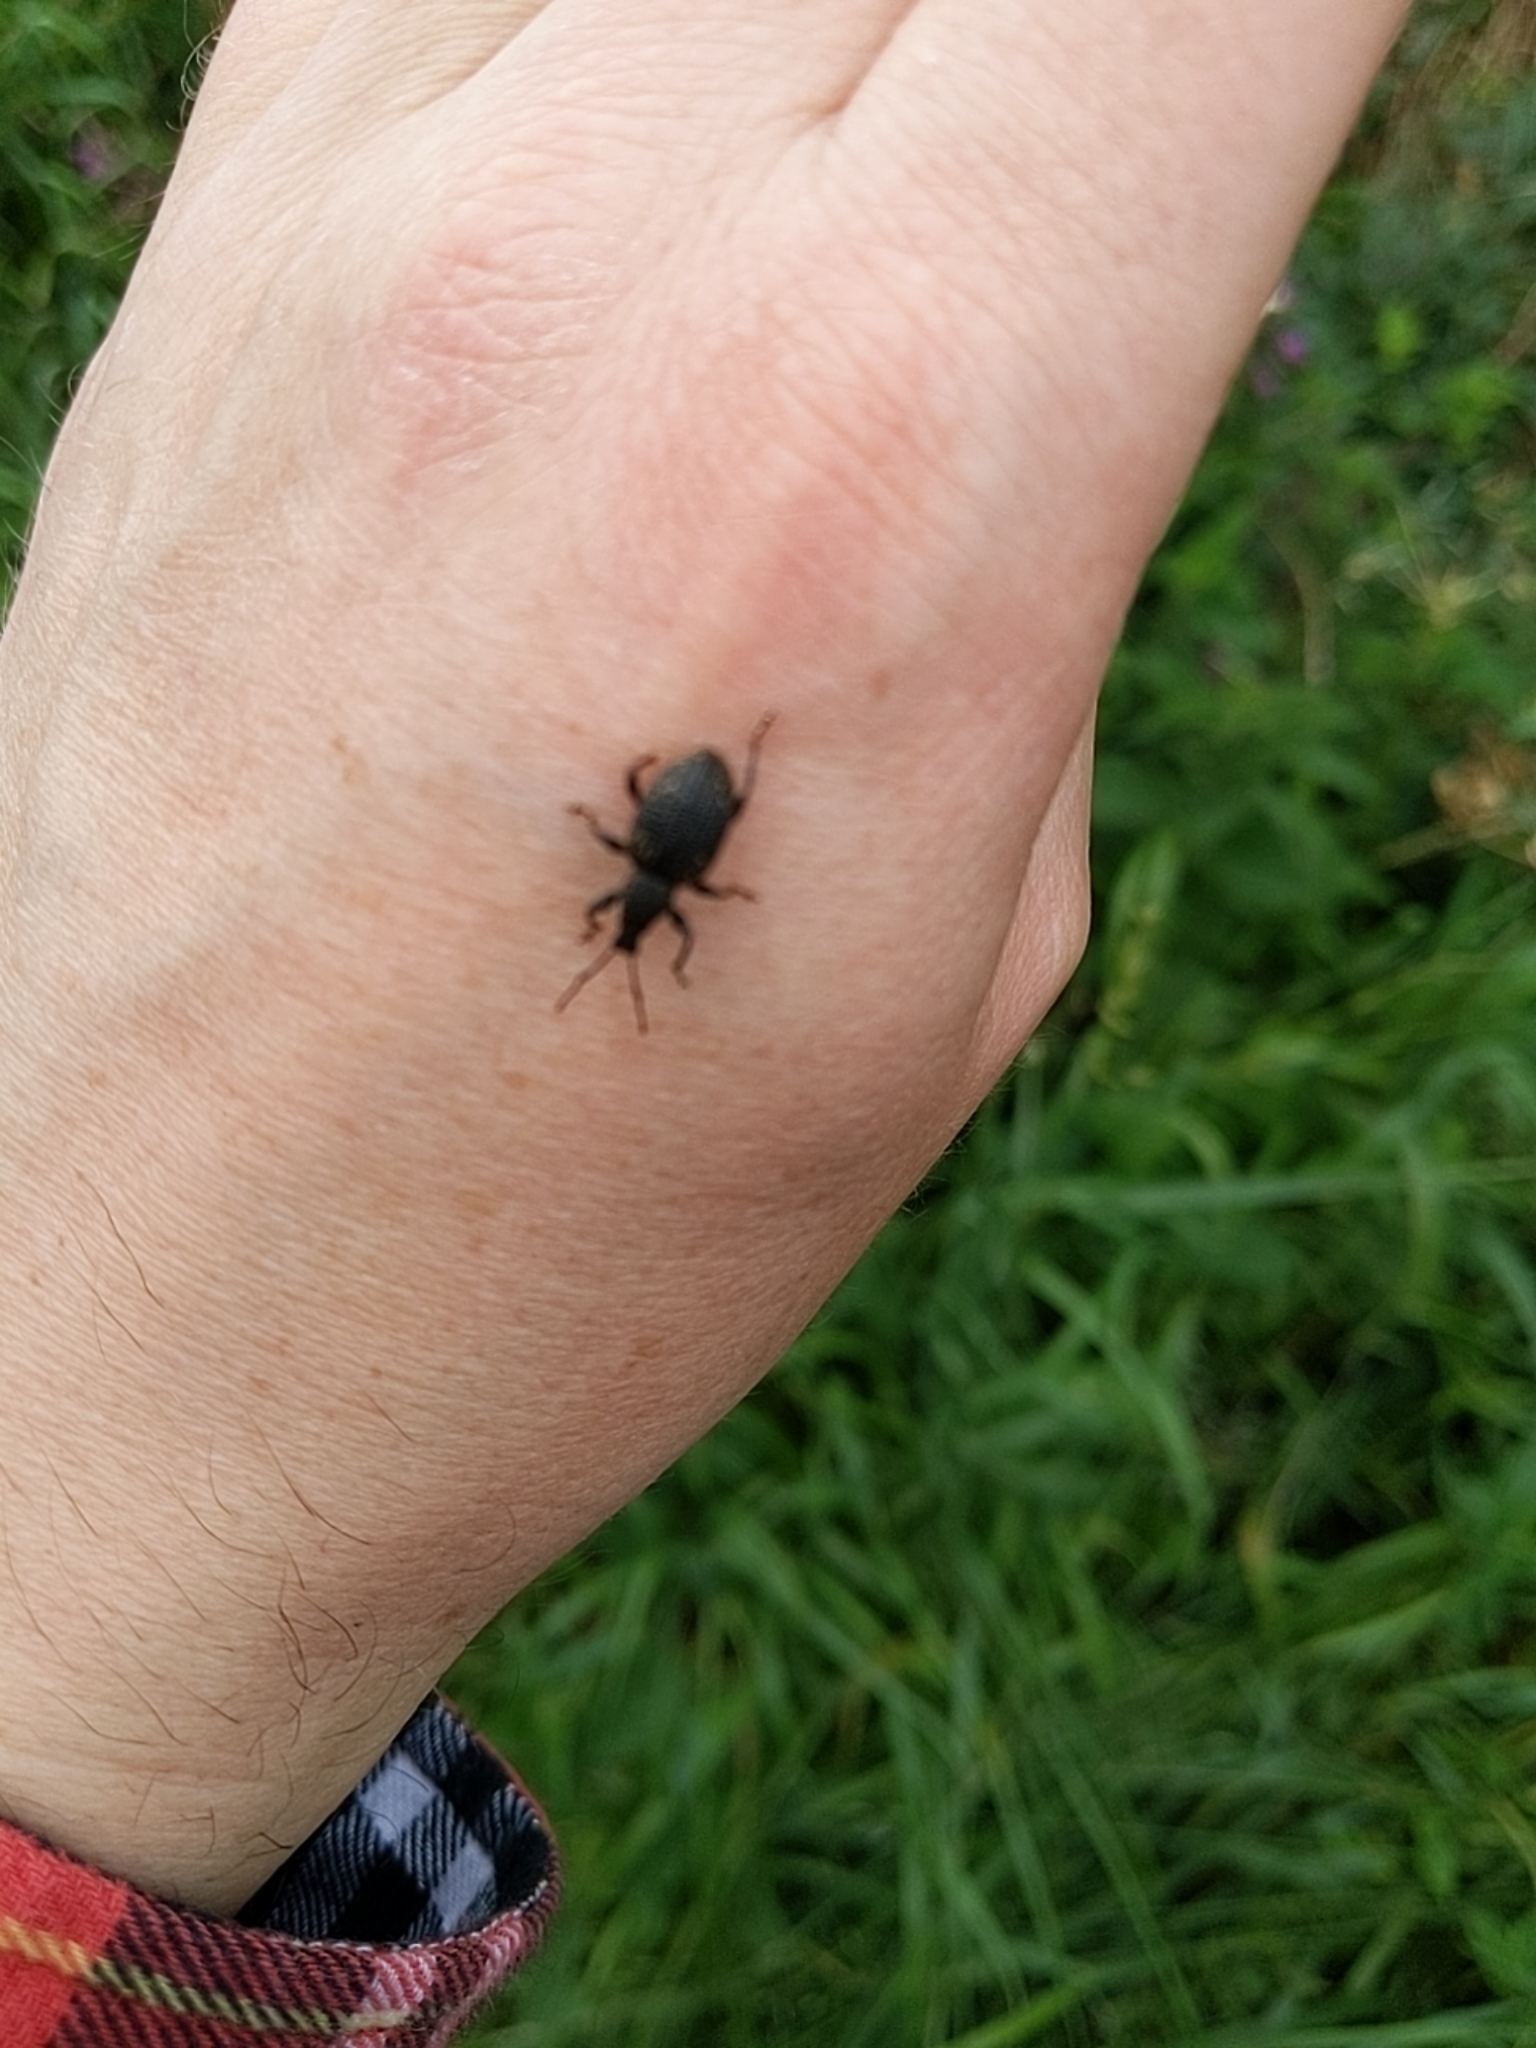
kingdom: Animalia
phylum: Arthropoda
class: Insecta
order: Coleoptera
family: Curculionidae
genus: Otiorhynchus
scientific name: Otiorhynchus sulcatus
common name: Black vine weevil
